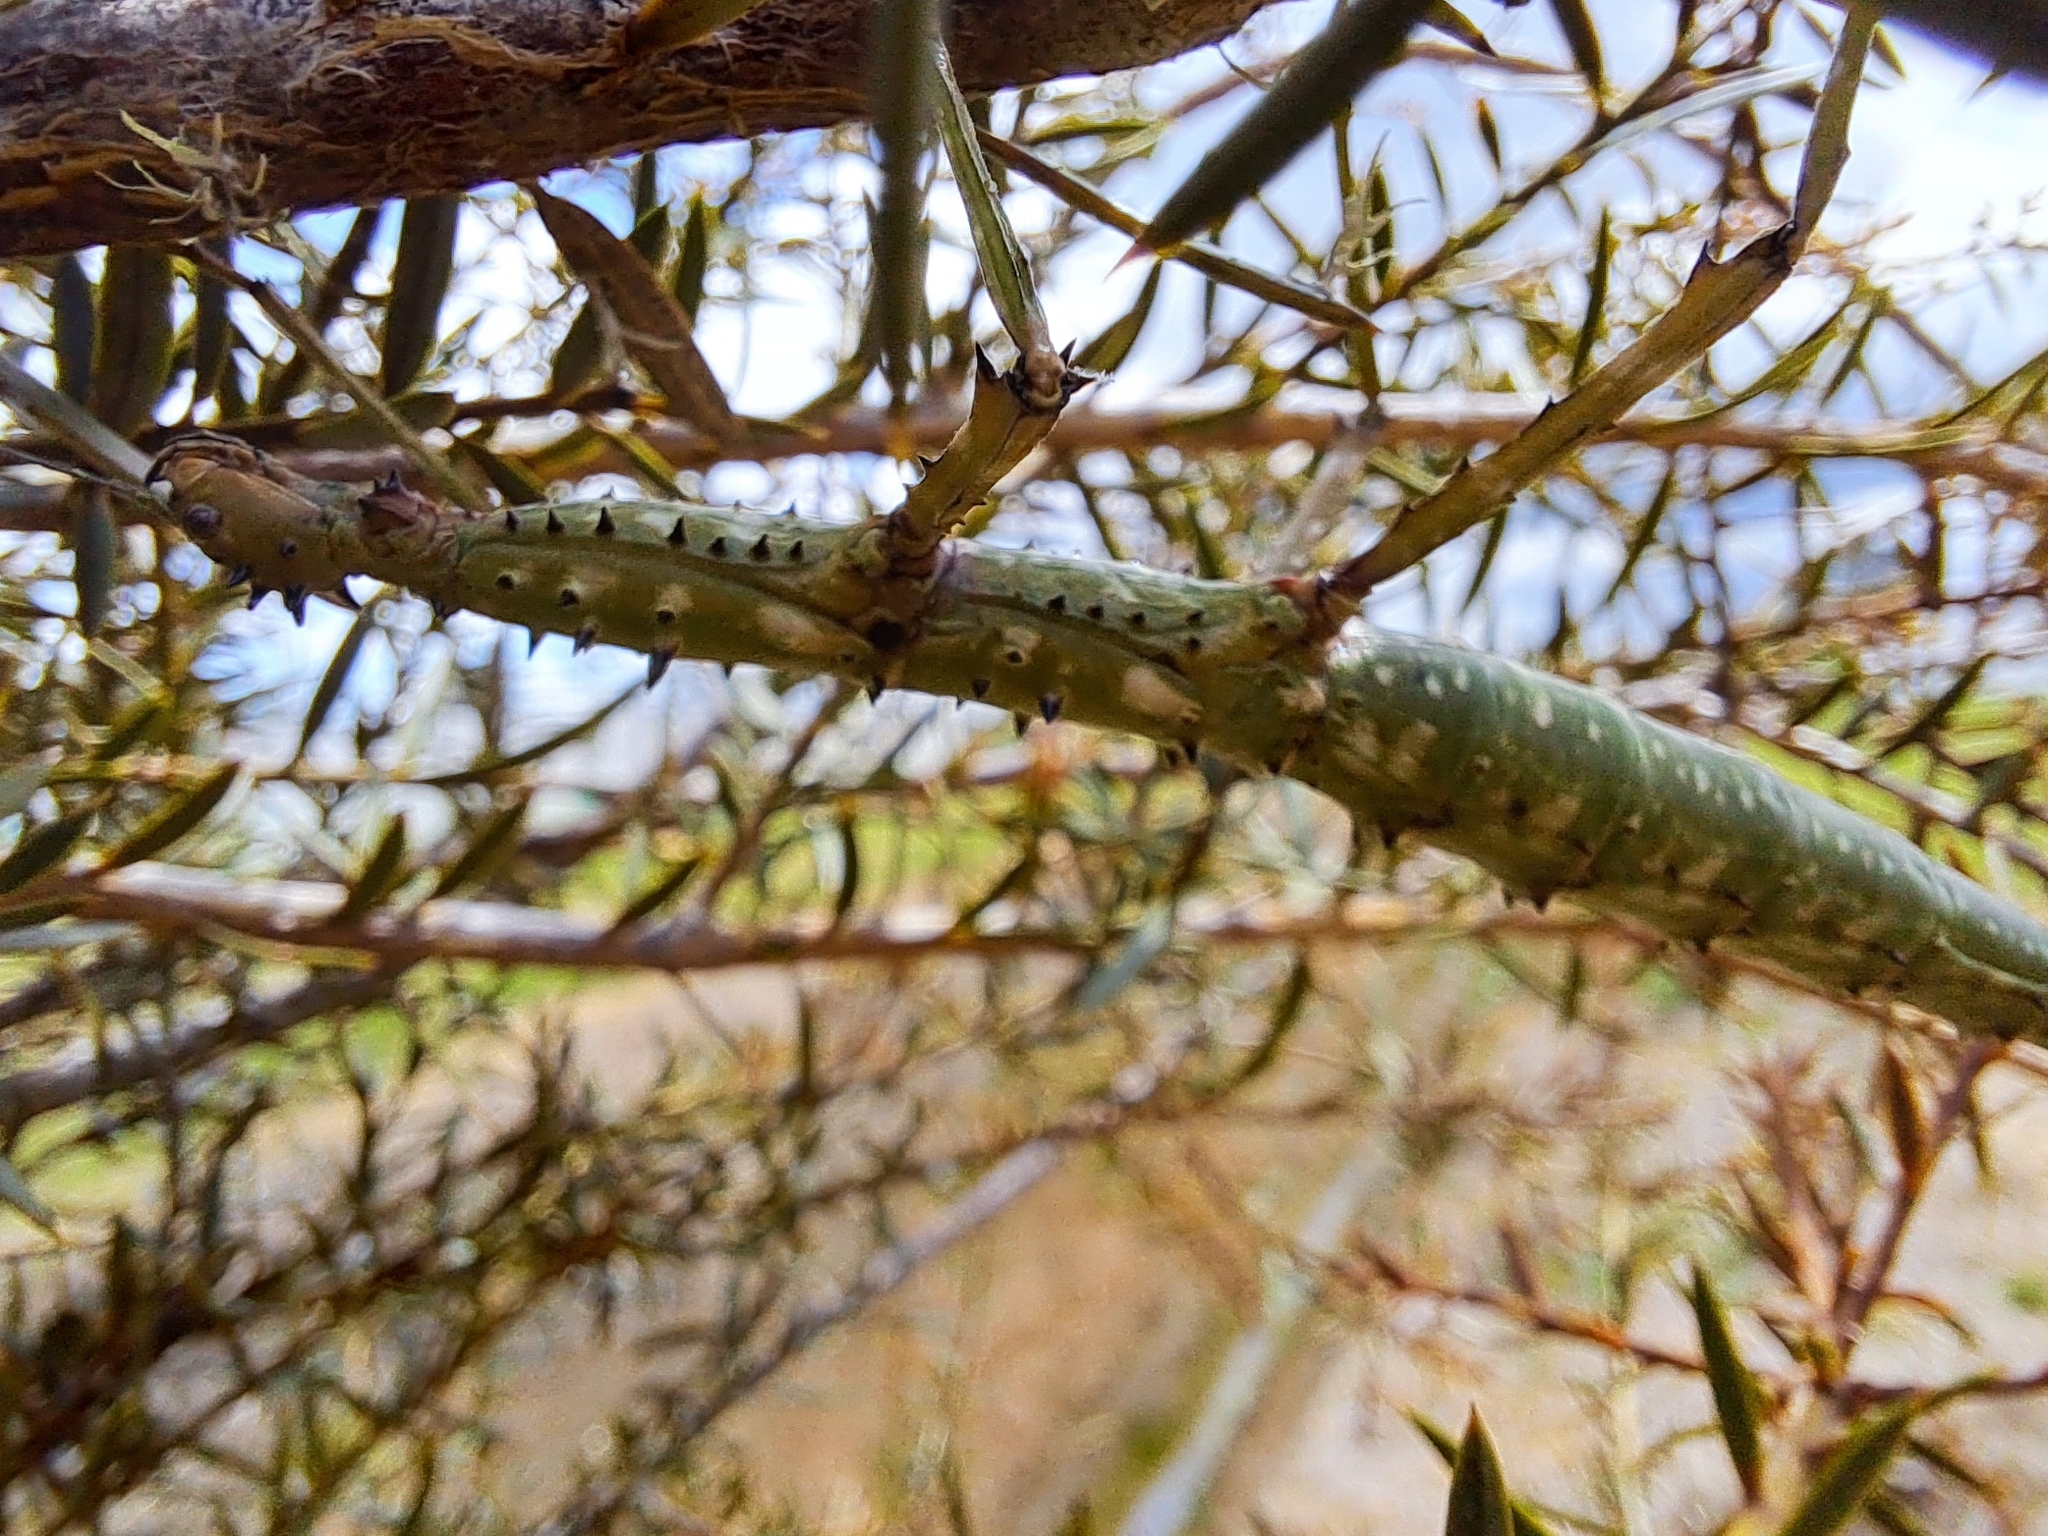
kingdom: Animalia
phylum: Arthropoda
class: Insecta
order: Phasmida
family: Phasmatidae
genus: Acanthoxyla
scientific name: Acanthoxyla prasina
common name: Black-spined stick insect
